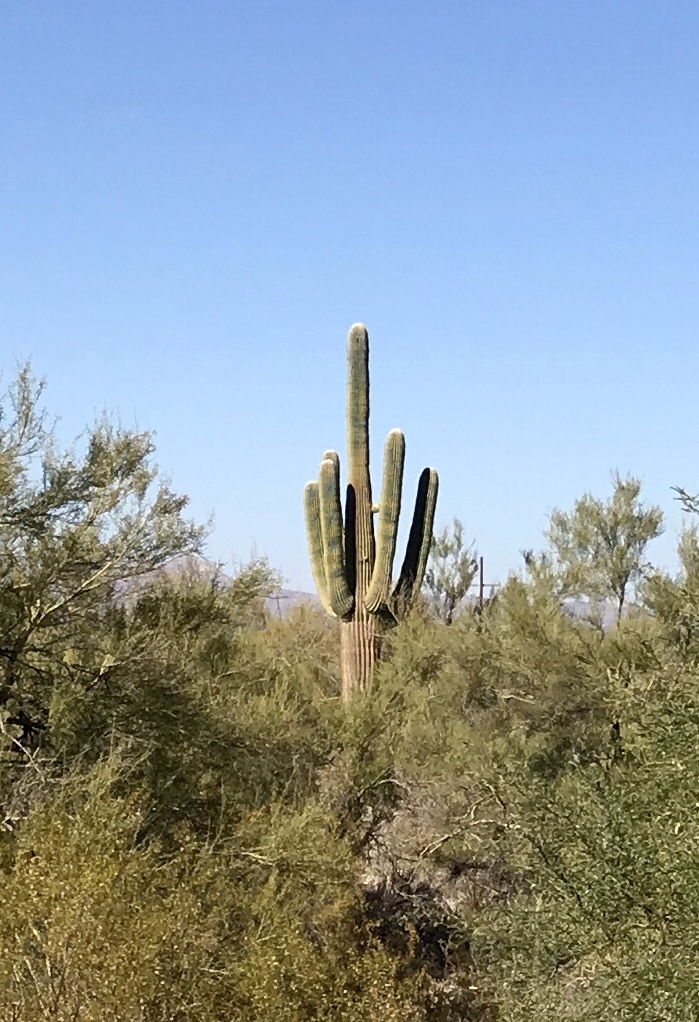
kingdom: Plantae
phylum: Tracheophyta
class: Magnoliopsida
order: Caryophyllales
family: Cactaceae
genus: Carnegiea
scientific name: Carnegiea gigantea
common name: Saguaro
